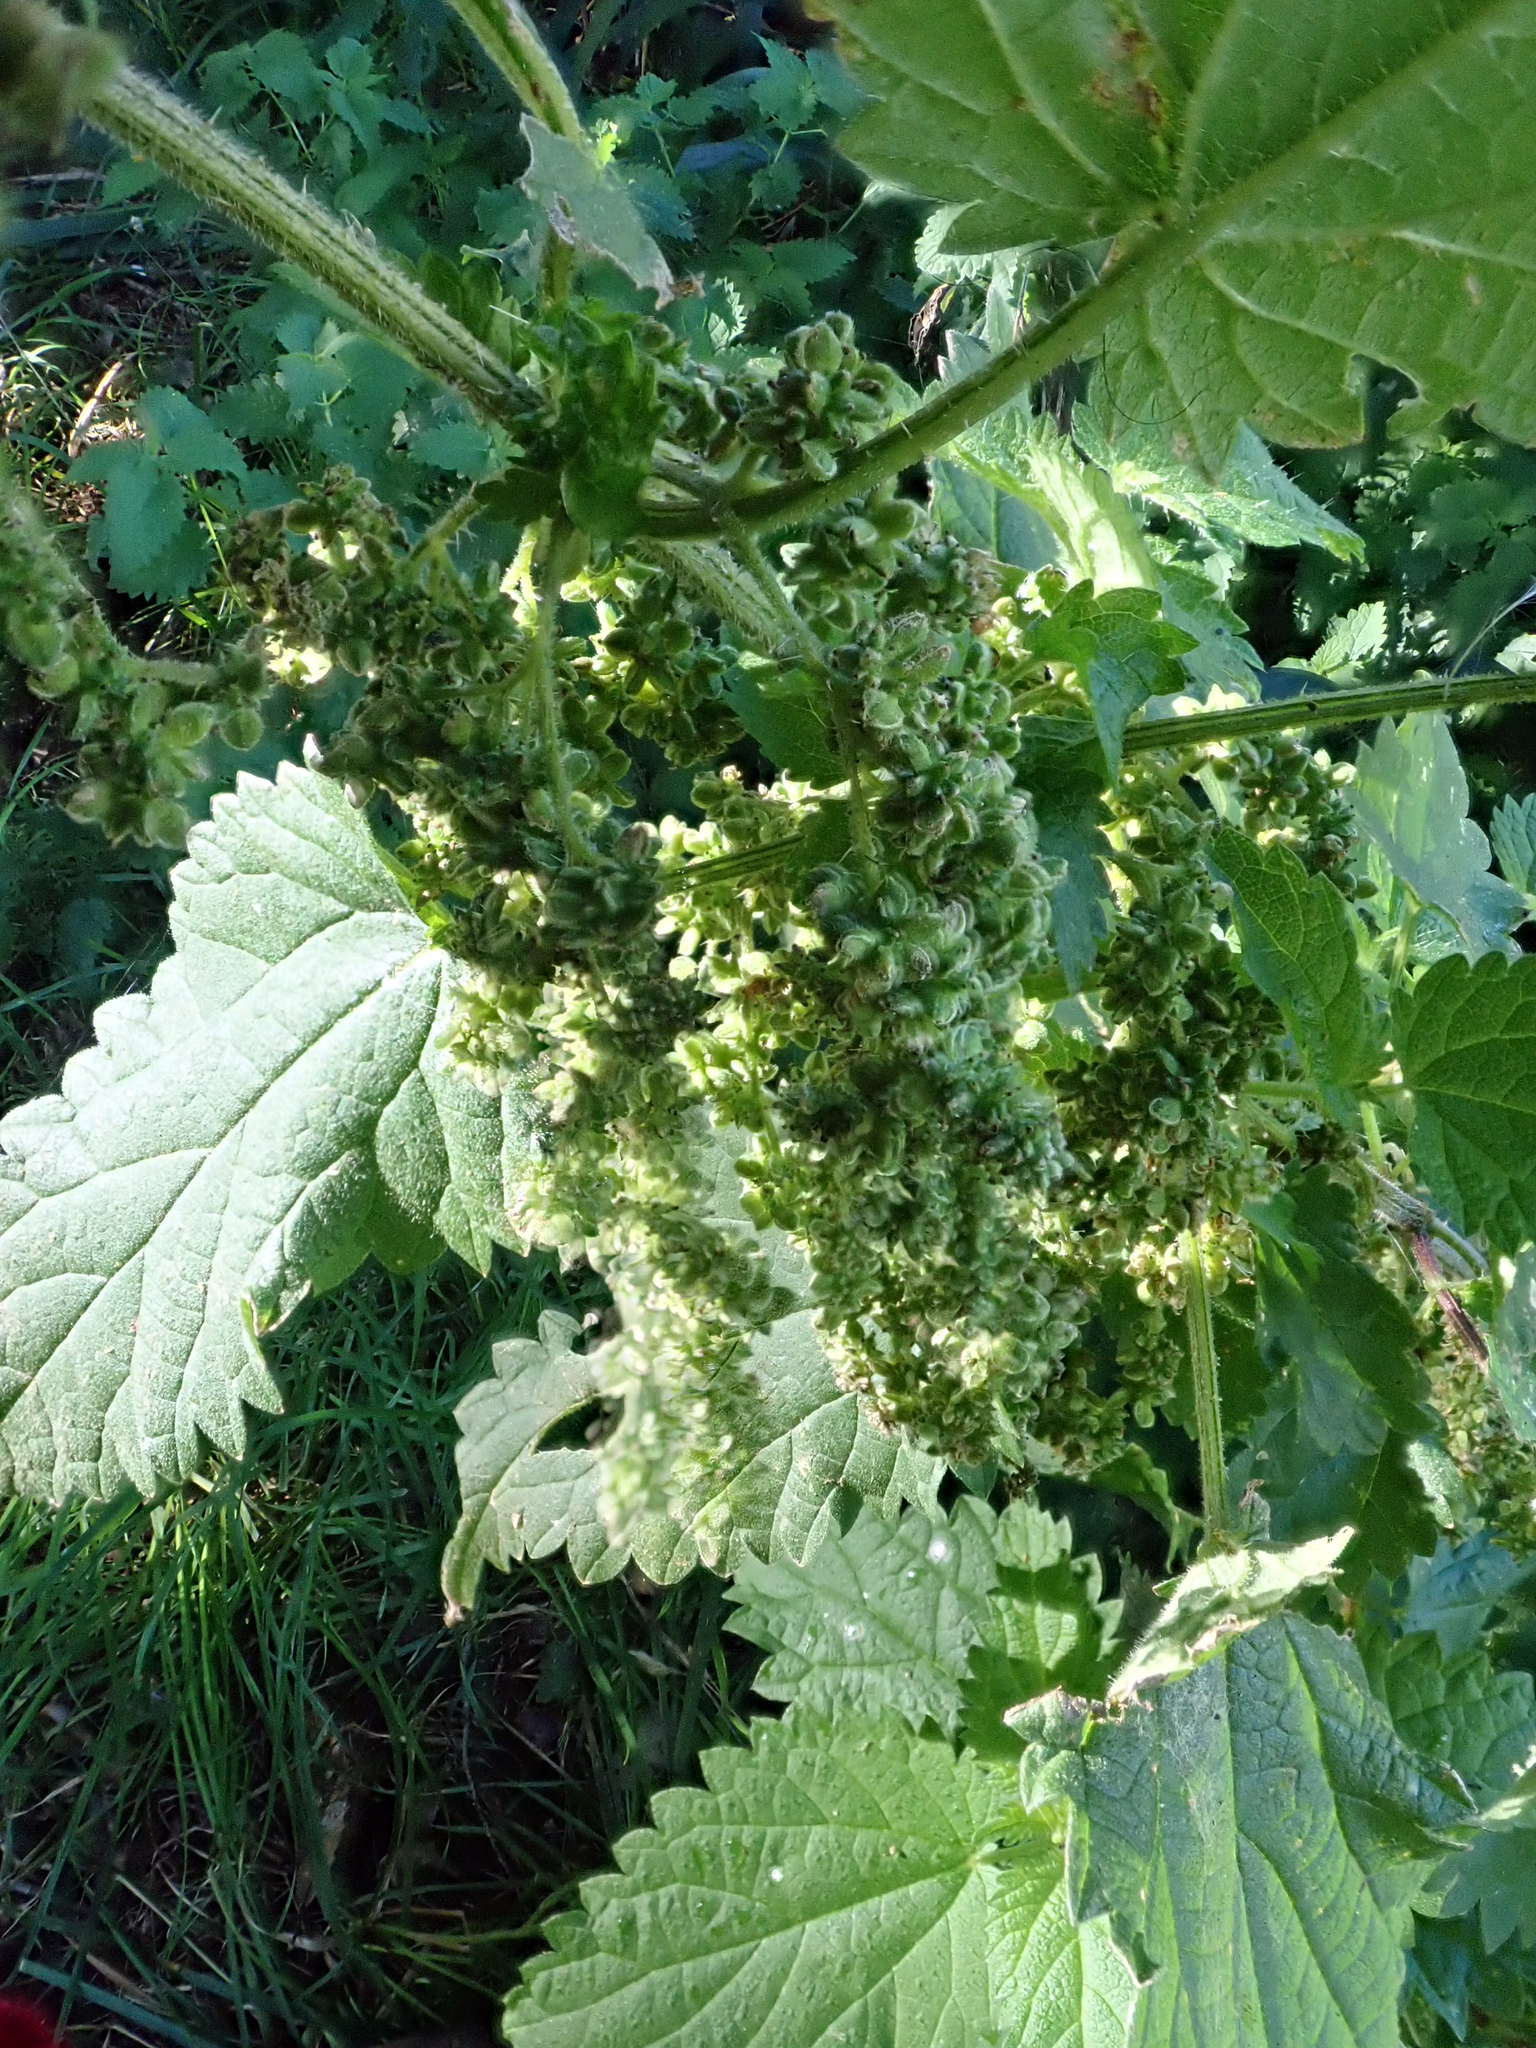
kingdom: Plantae
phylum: Tracheophyta
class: Magnoliopsida
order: Rosales
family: Urticaceae
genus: Urtica
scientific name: Urtica dioica
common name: Common nettle
